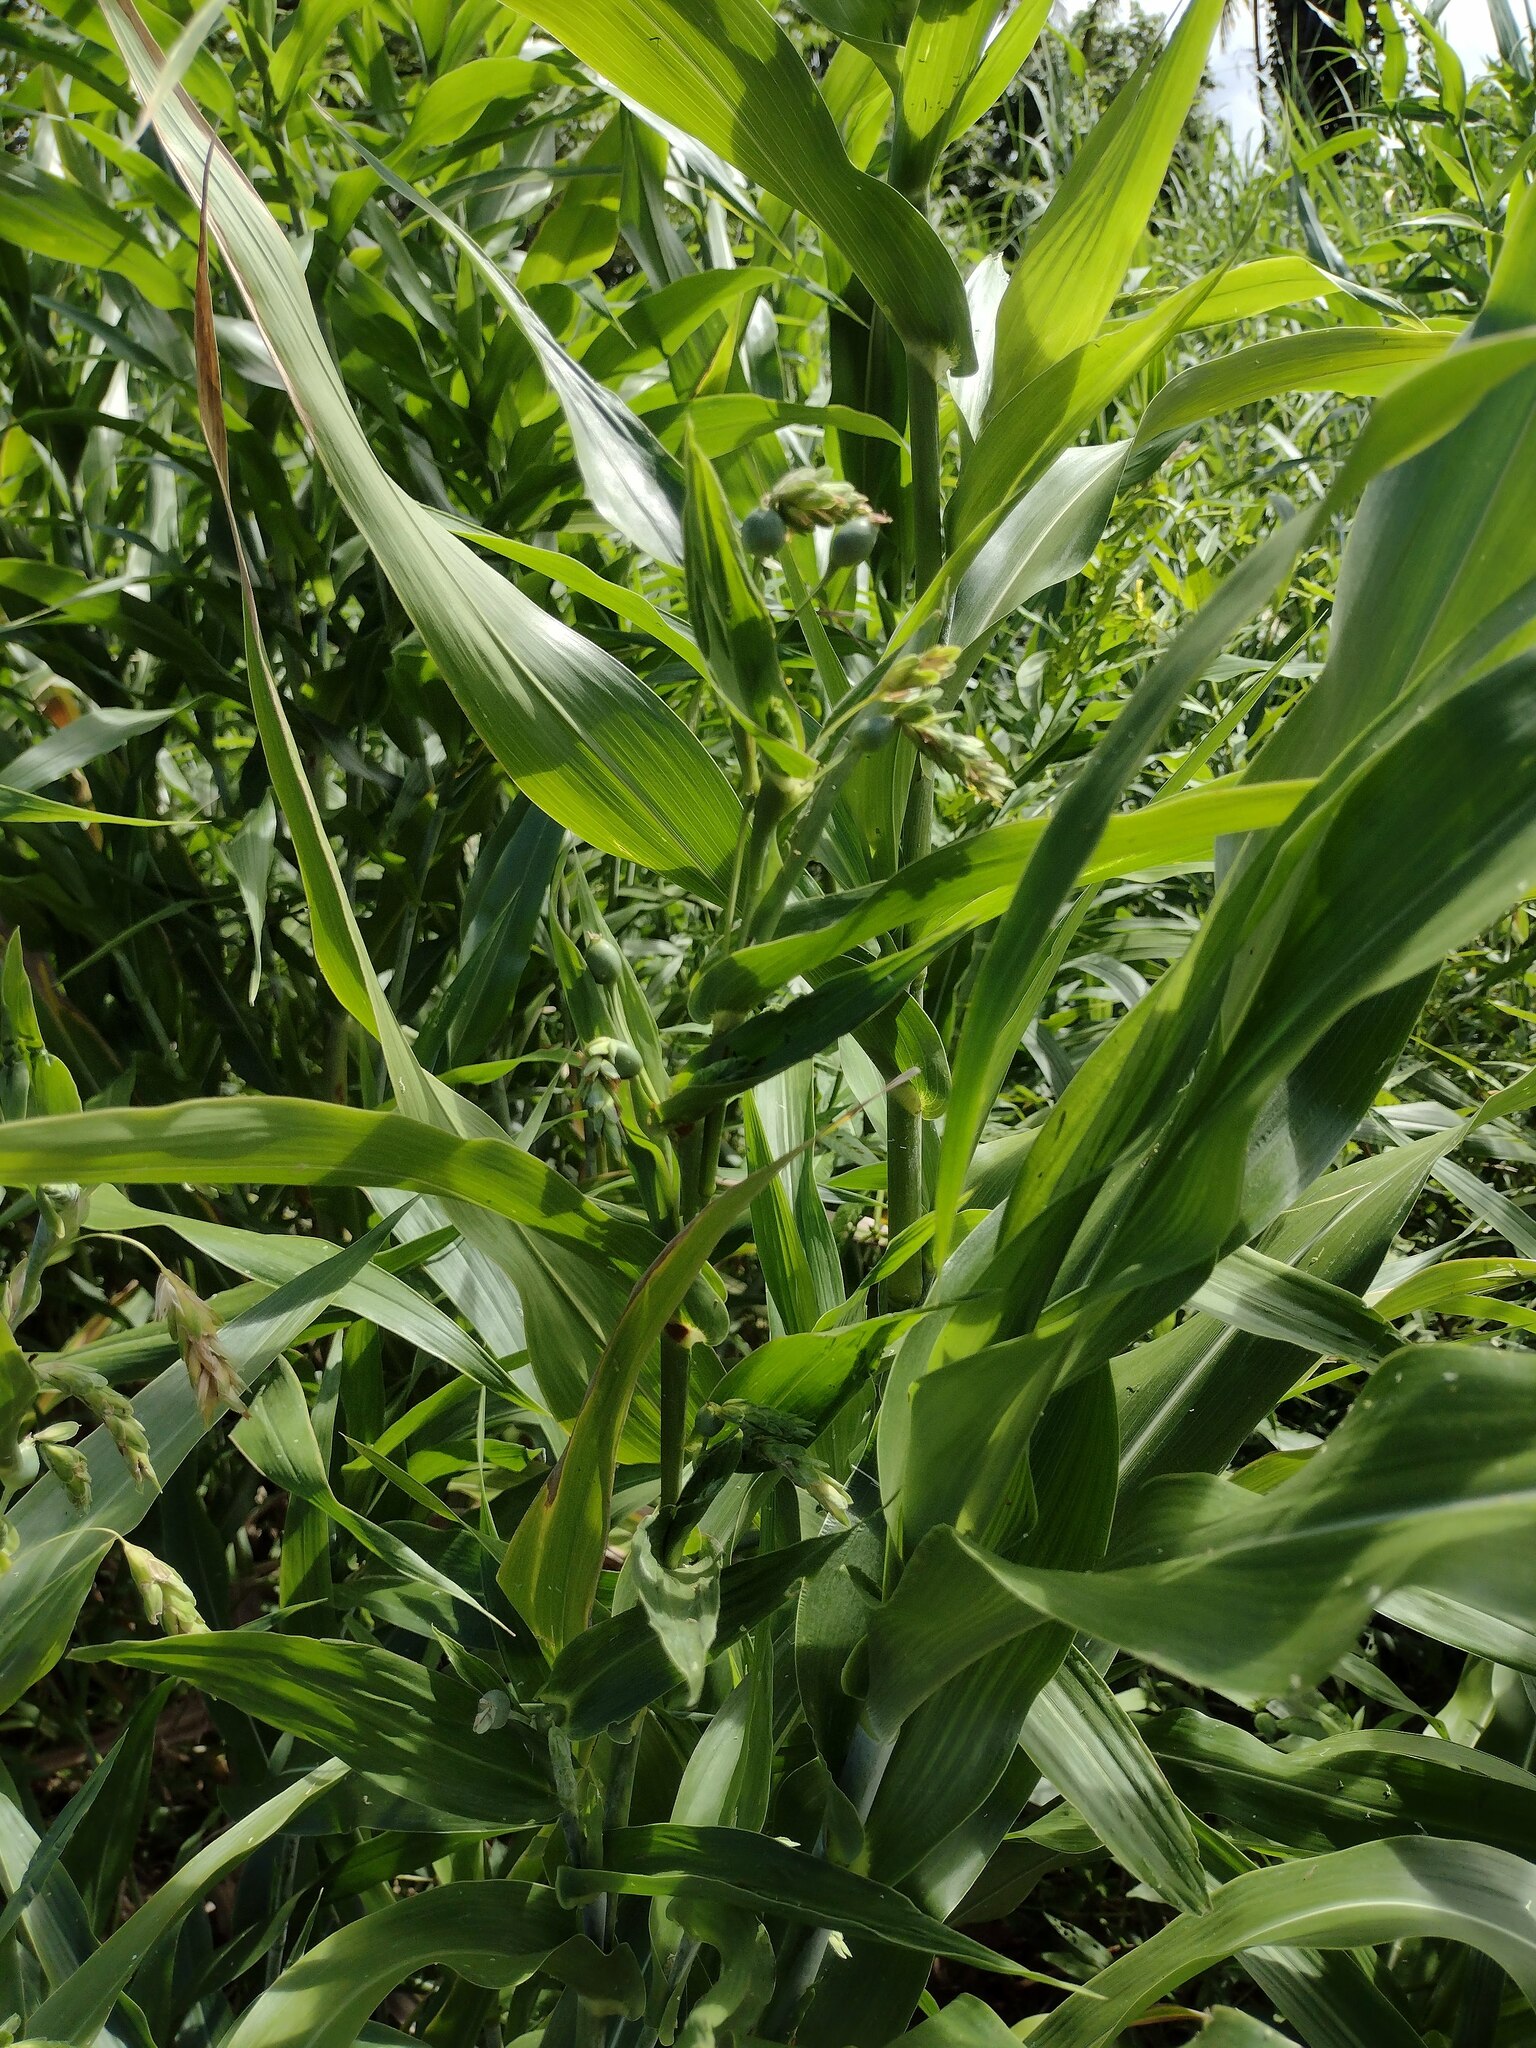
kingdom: Plantae
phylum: Tracheophyta
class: Liliopsida
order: Poales
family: Poaceae
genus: Coix
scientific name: Coix lacryma-jobi
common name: Job's tears
